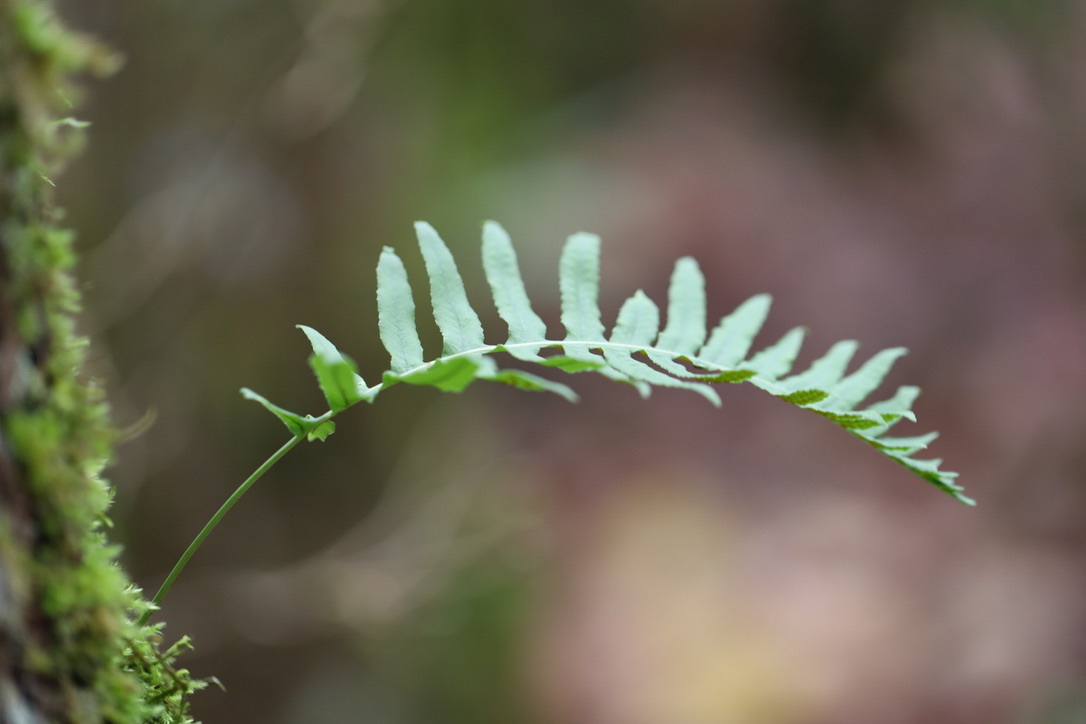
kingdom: Plantae
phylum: Tracheophyta
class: Polypodiopsida
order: Polypodiales
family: Polypodiaceae
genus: Polypodium
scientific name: Polypodium glycyrrhiza
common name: Licorice fern
